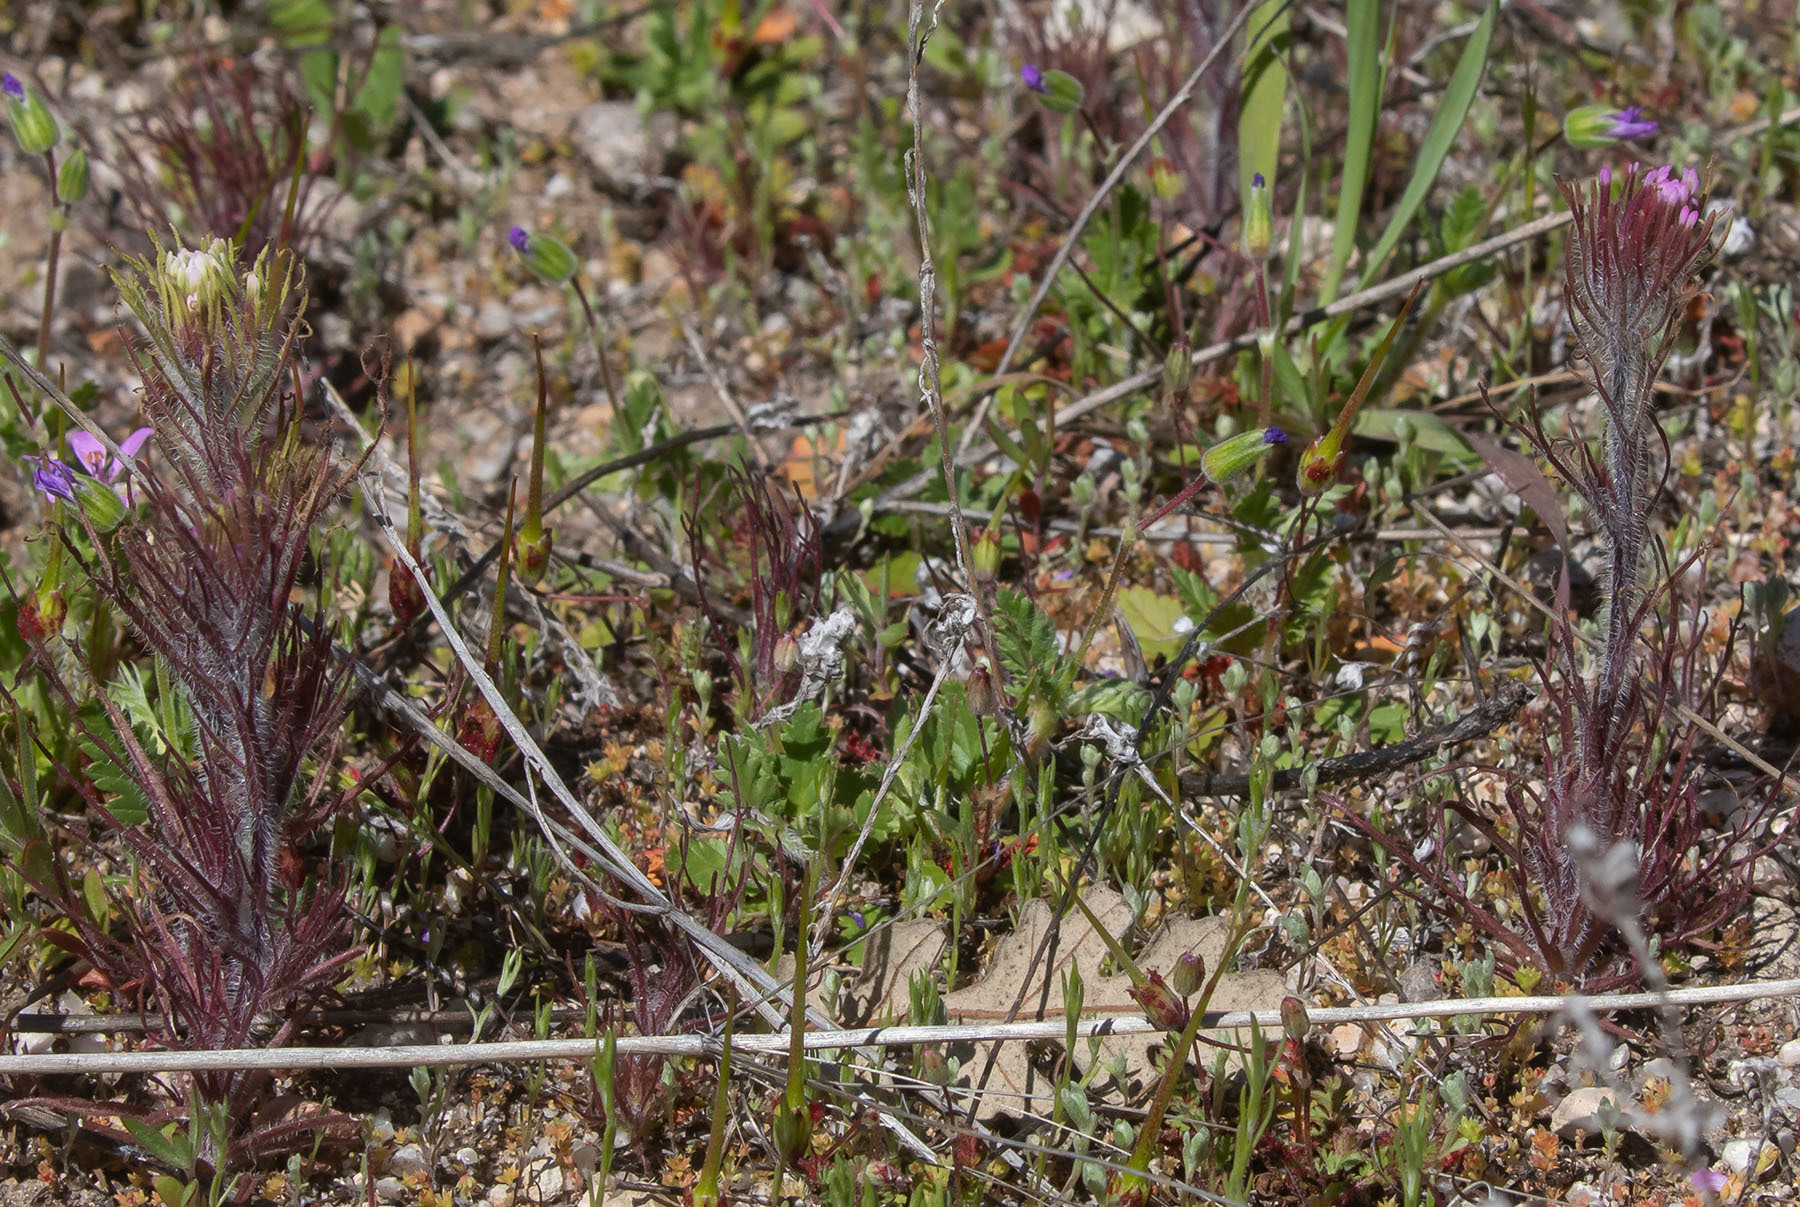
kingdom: Plantae
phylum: Tracheophyta
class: Magnoliopsida
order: Lamiales
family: Orobanchaceae
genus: Castilleja
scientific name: Castilleja exserta
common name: Purple owl-clover
